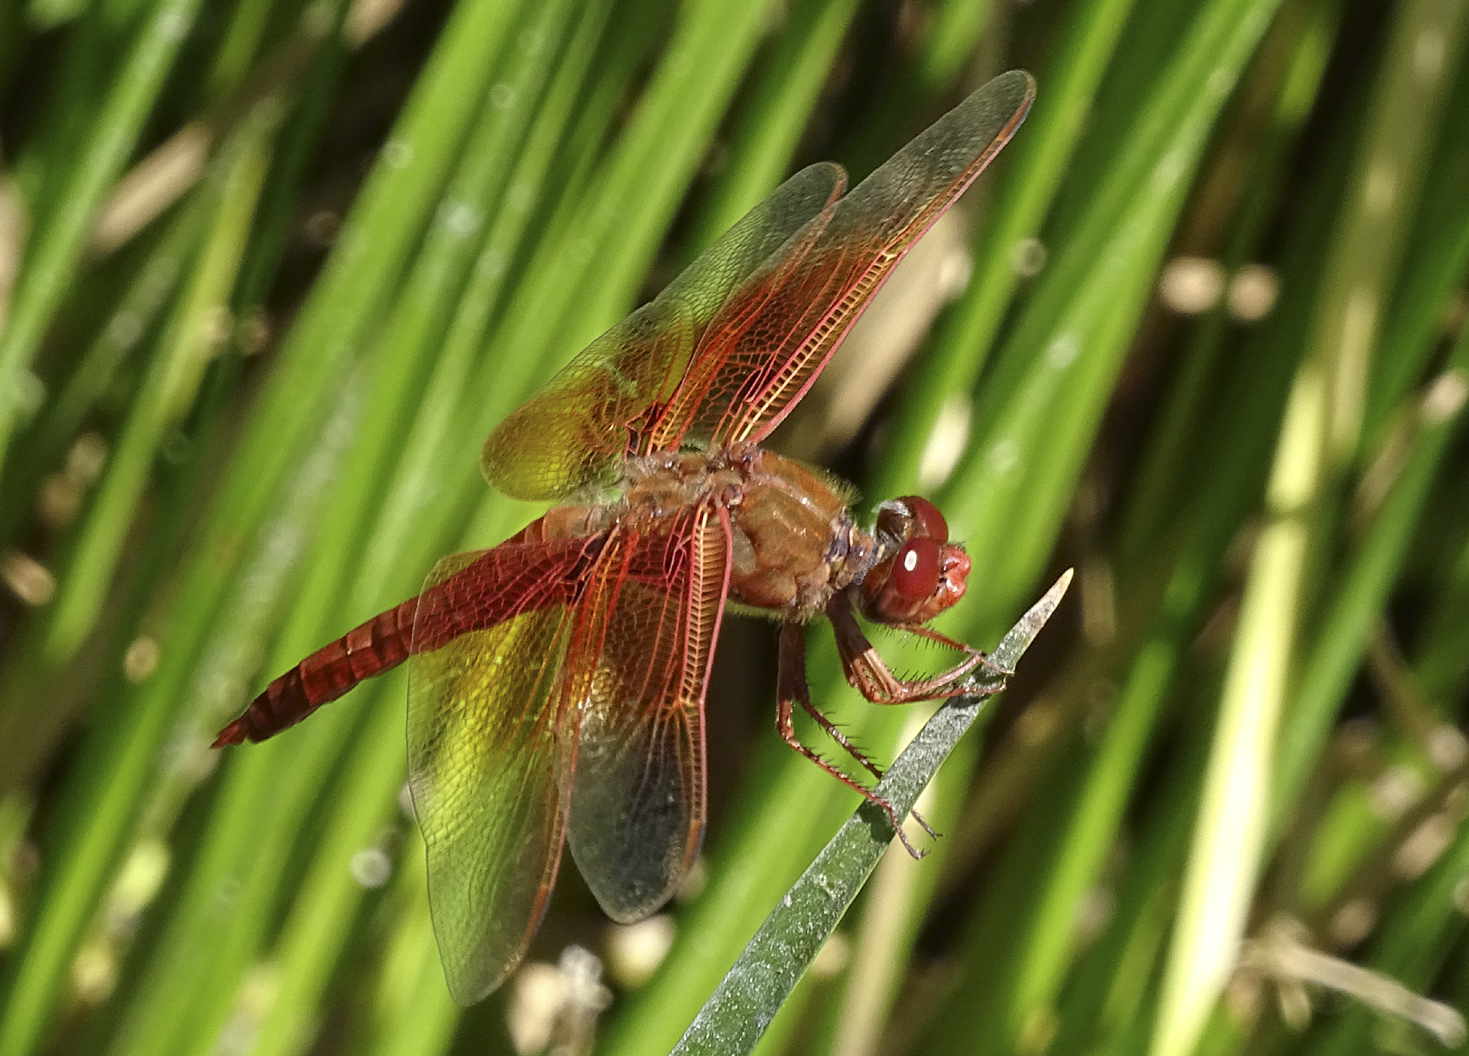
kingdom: Animalia
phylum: Arthropoda
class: Insecta
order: Odonata
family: Libellulidae
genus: Libellula
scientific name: Libellula saturata
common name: Flame skimmer
